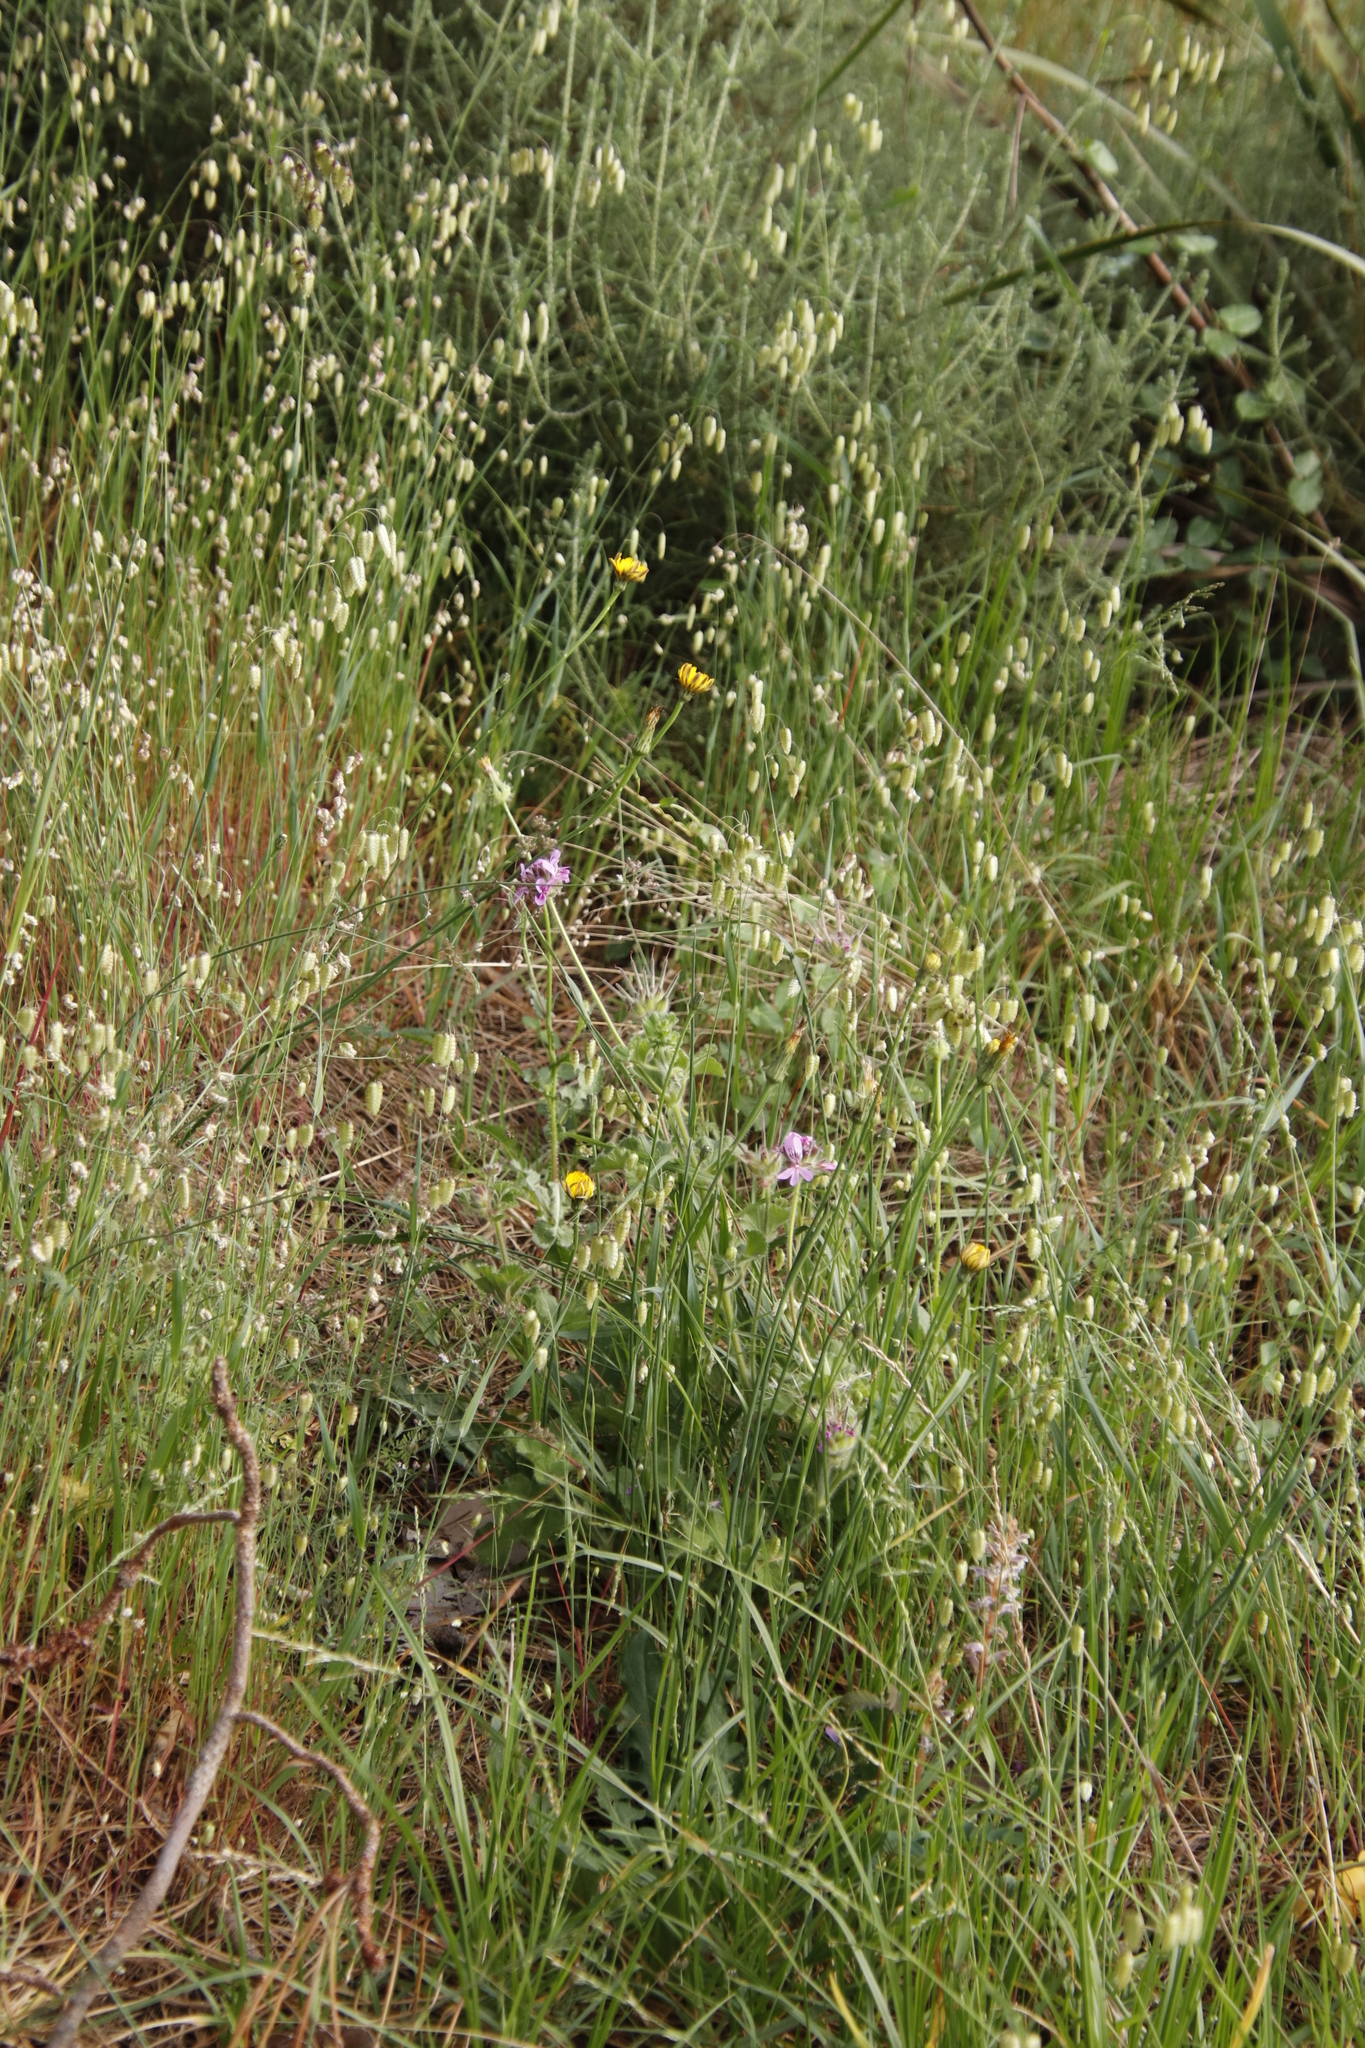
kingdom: Plantae
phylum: Tracheophyta
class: Liliopsida
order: Poales
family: Poaceae
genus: Briza
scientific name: Briza maxima
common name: Big quakinggrass
